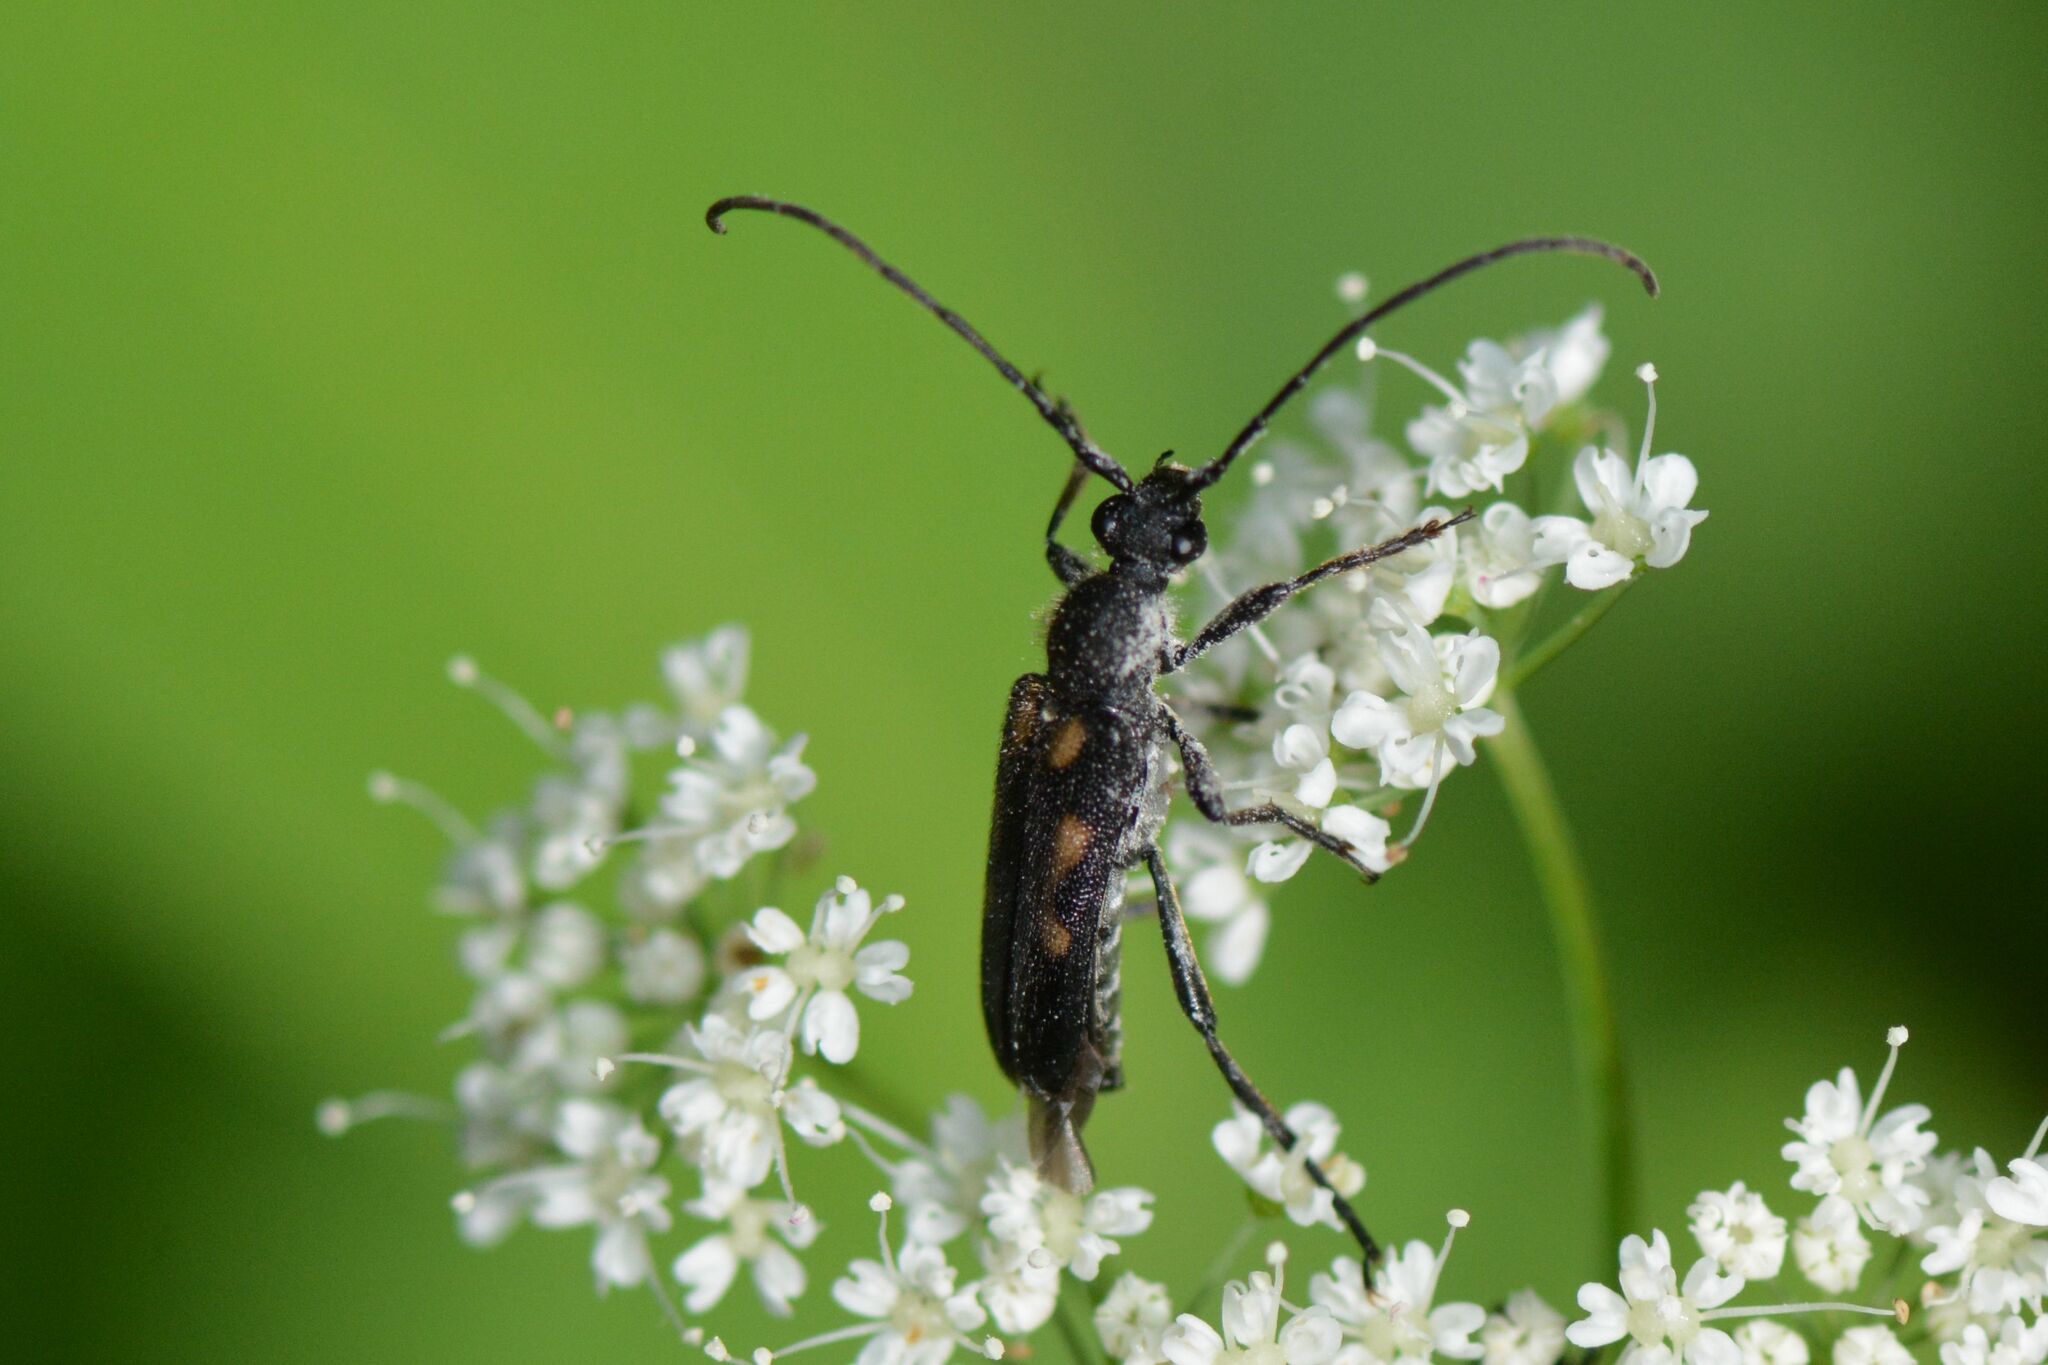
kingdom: Animalia
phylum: Arthropoda
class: Insecta
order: Coleoptera
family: Cerambycidae
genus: Anoplodera
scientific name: Anoplodera sexguttata
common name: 6 spotted longhorn
